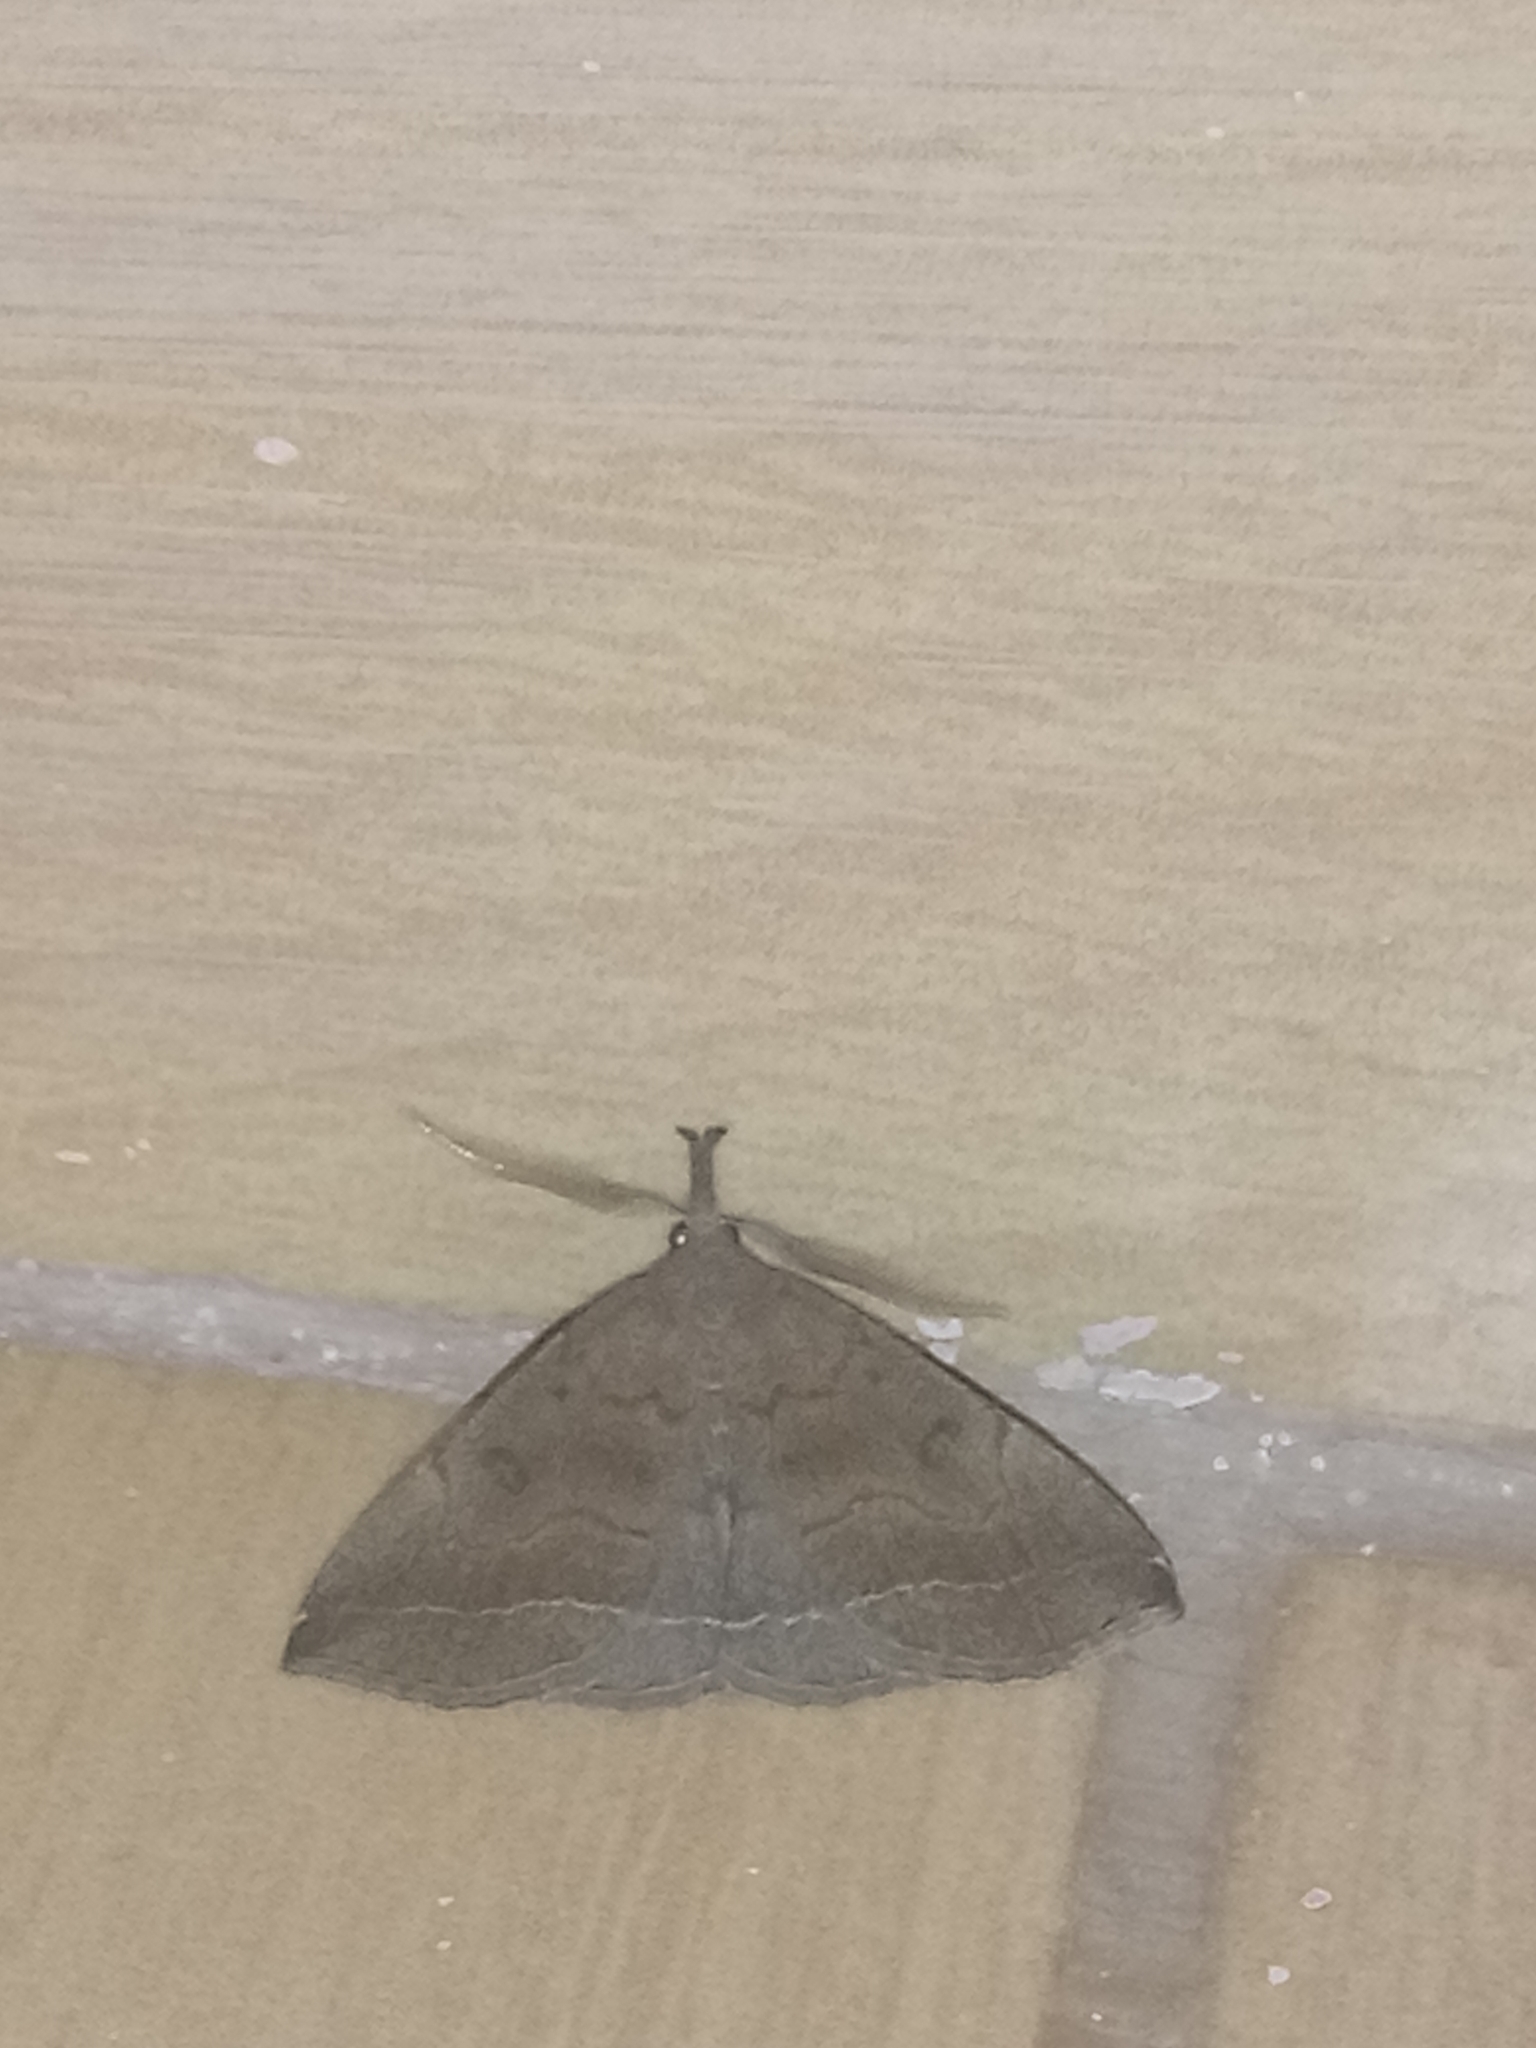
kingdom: Animalia
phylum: Arthropoda
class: Insecta
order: Lepidoptera
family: Erebidae
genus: Pechipogo
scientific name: Pechipogo plumigeralis
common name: Plumed fan-foot
